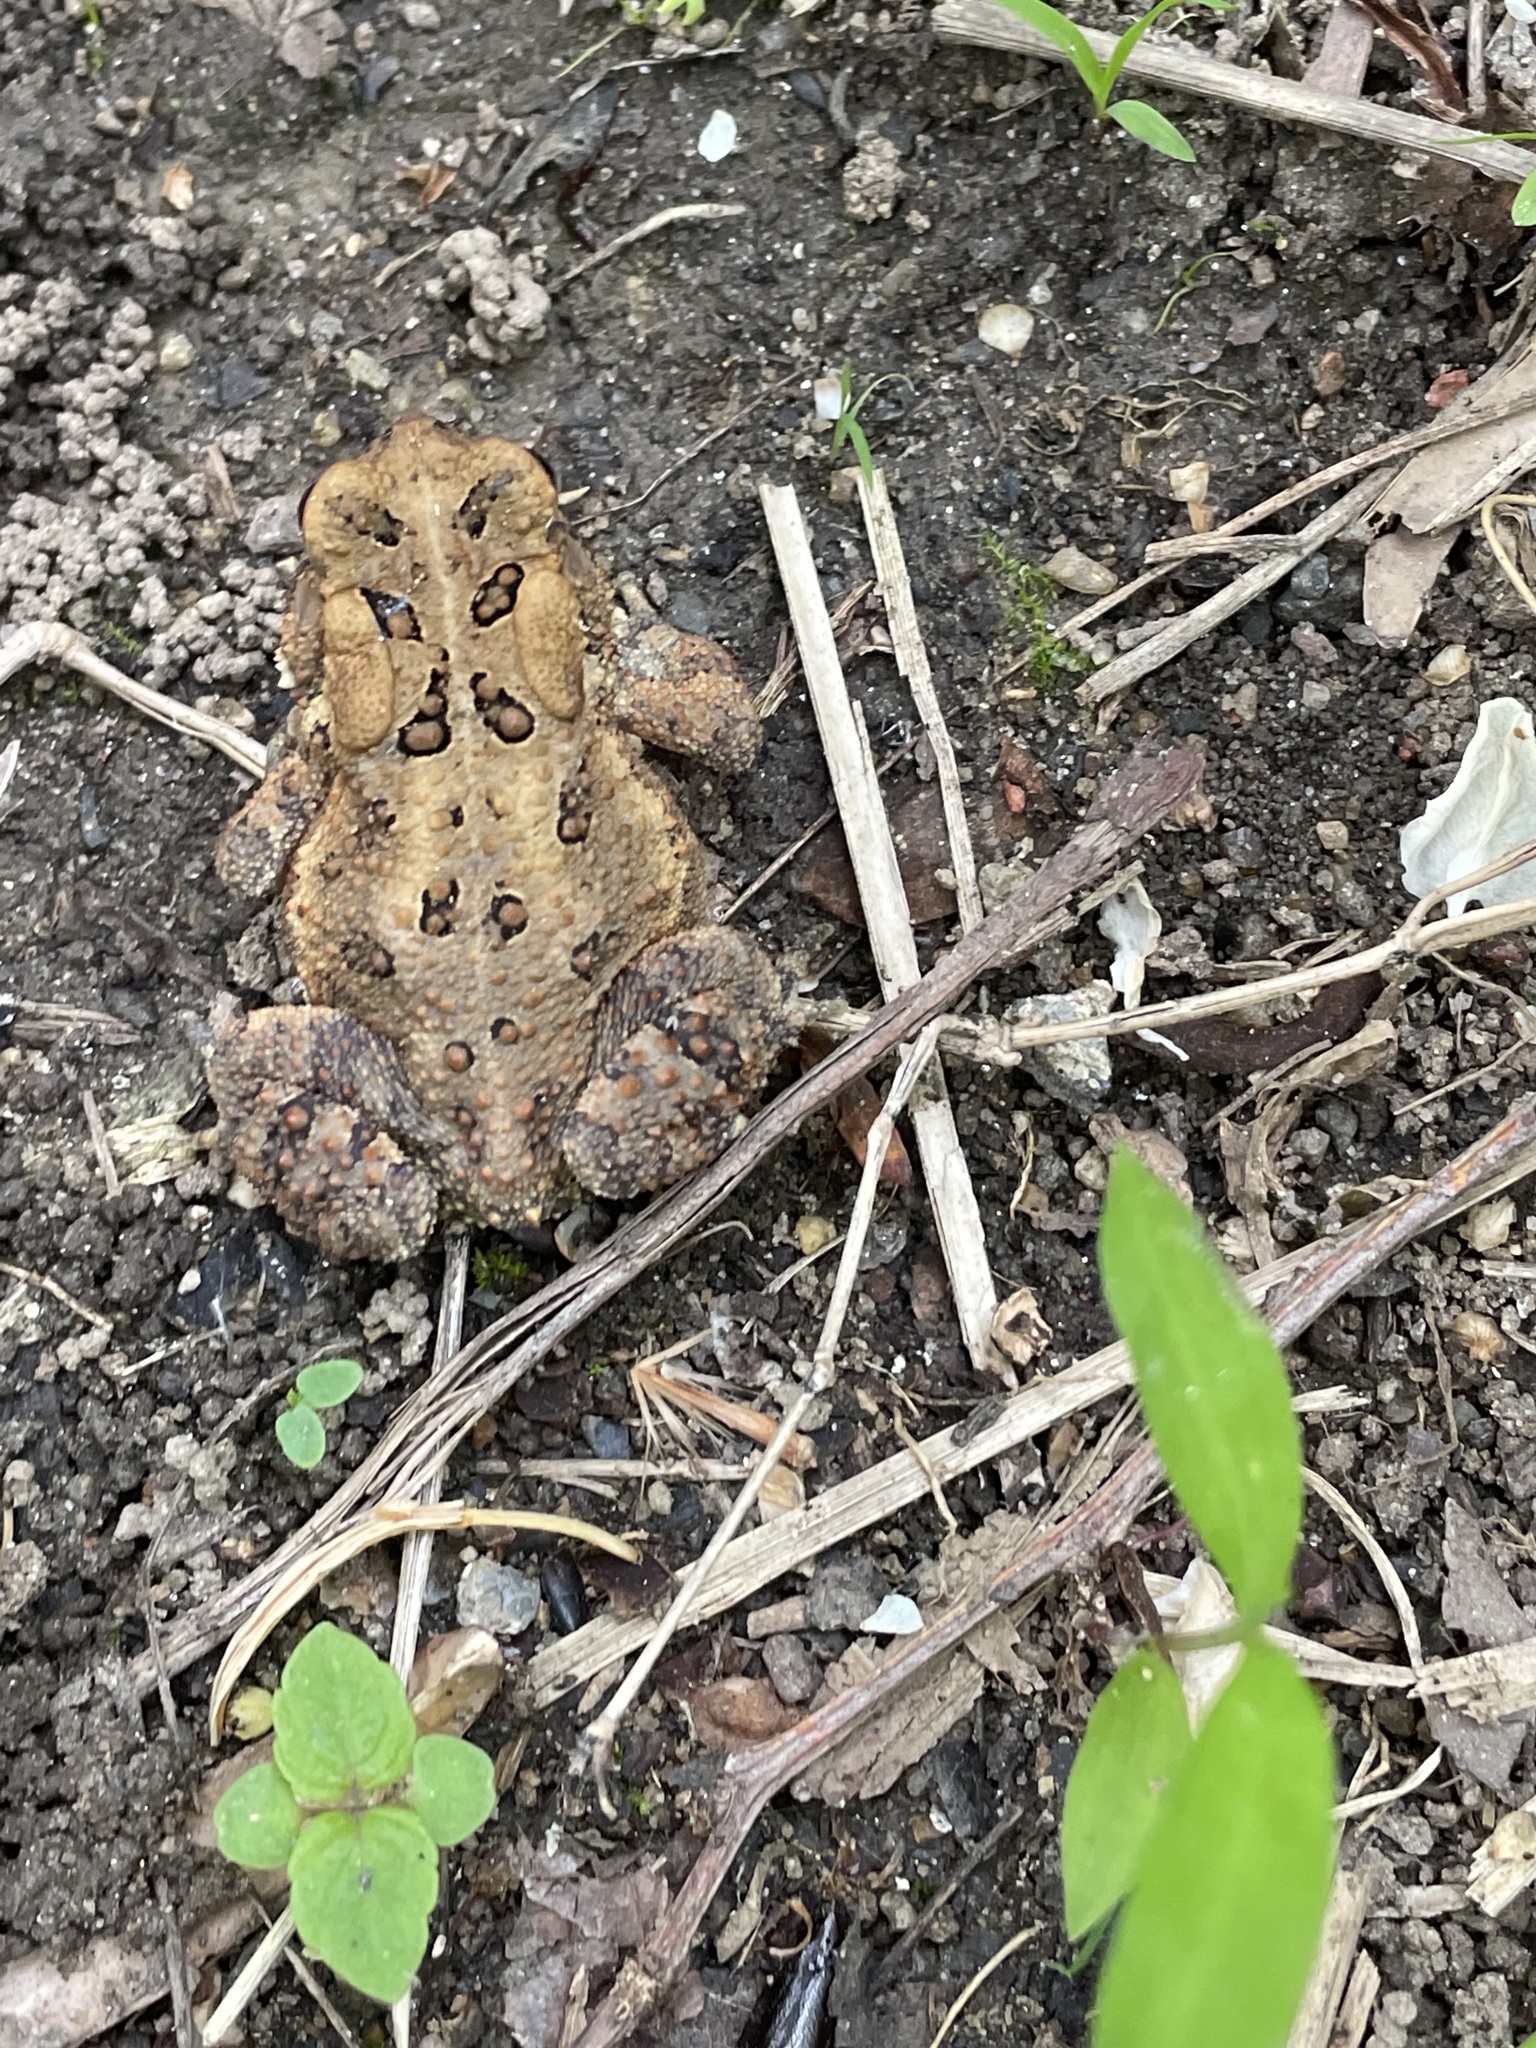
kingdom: Animalia
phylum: Chordata
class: Amphibia
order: Anura
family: Bufonidae
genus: Anaxyrus
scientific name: Anaxyrus americanus
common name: American toad
